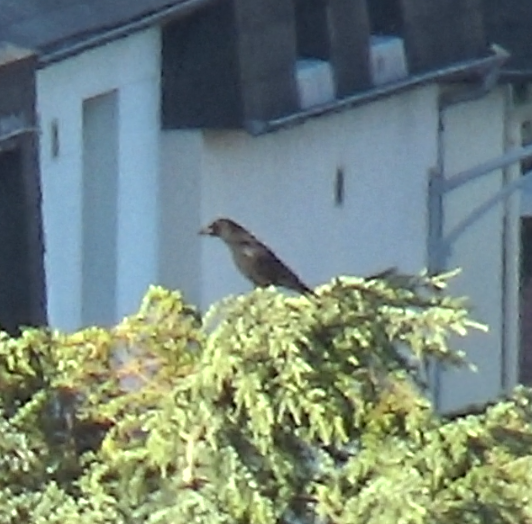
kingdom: Animalia
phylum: Chordata
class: Aves
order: Passeriformes
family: Corvidae
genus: Corvus
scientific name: Corvus corone
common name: Carrion crow
